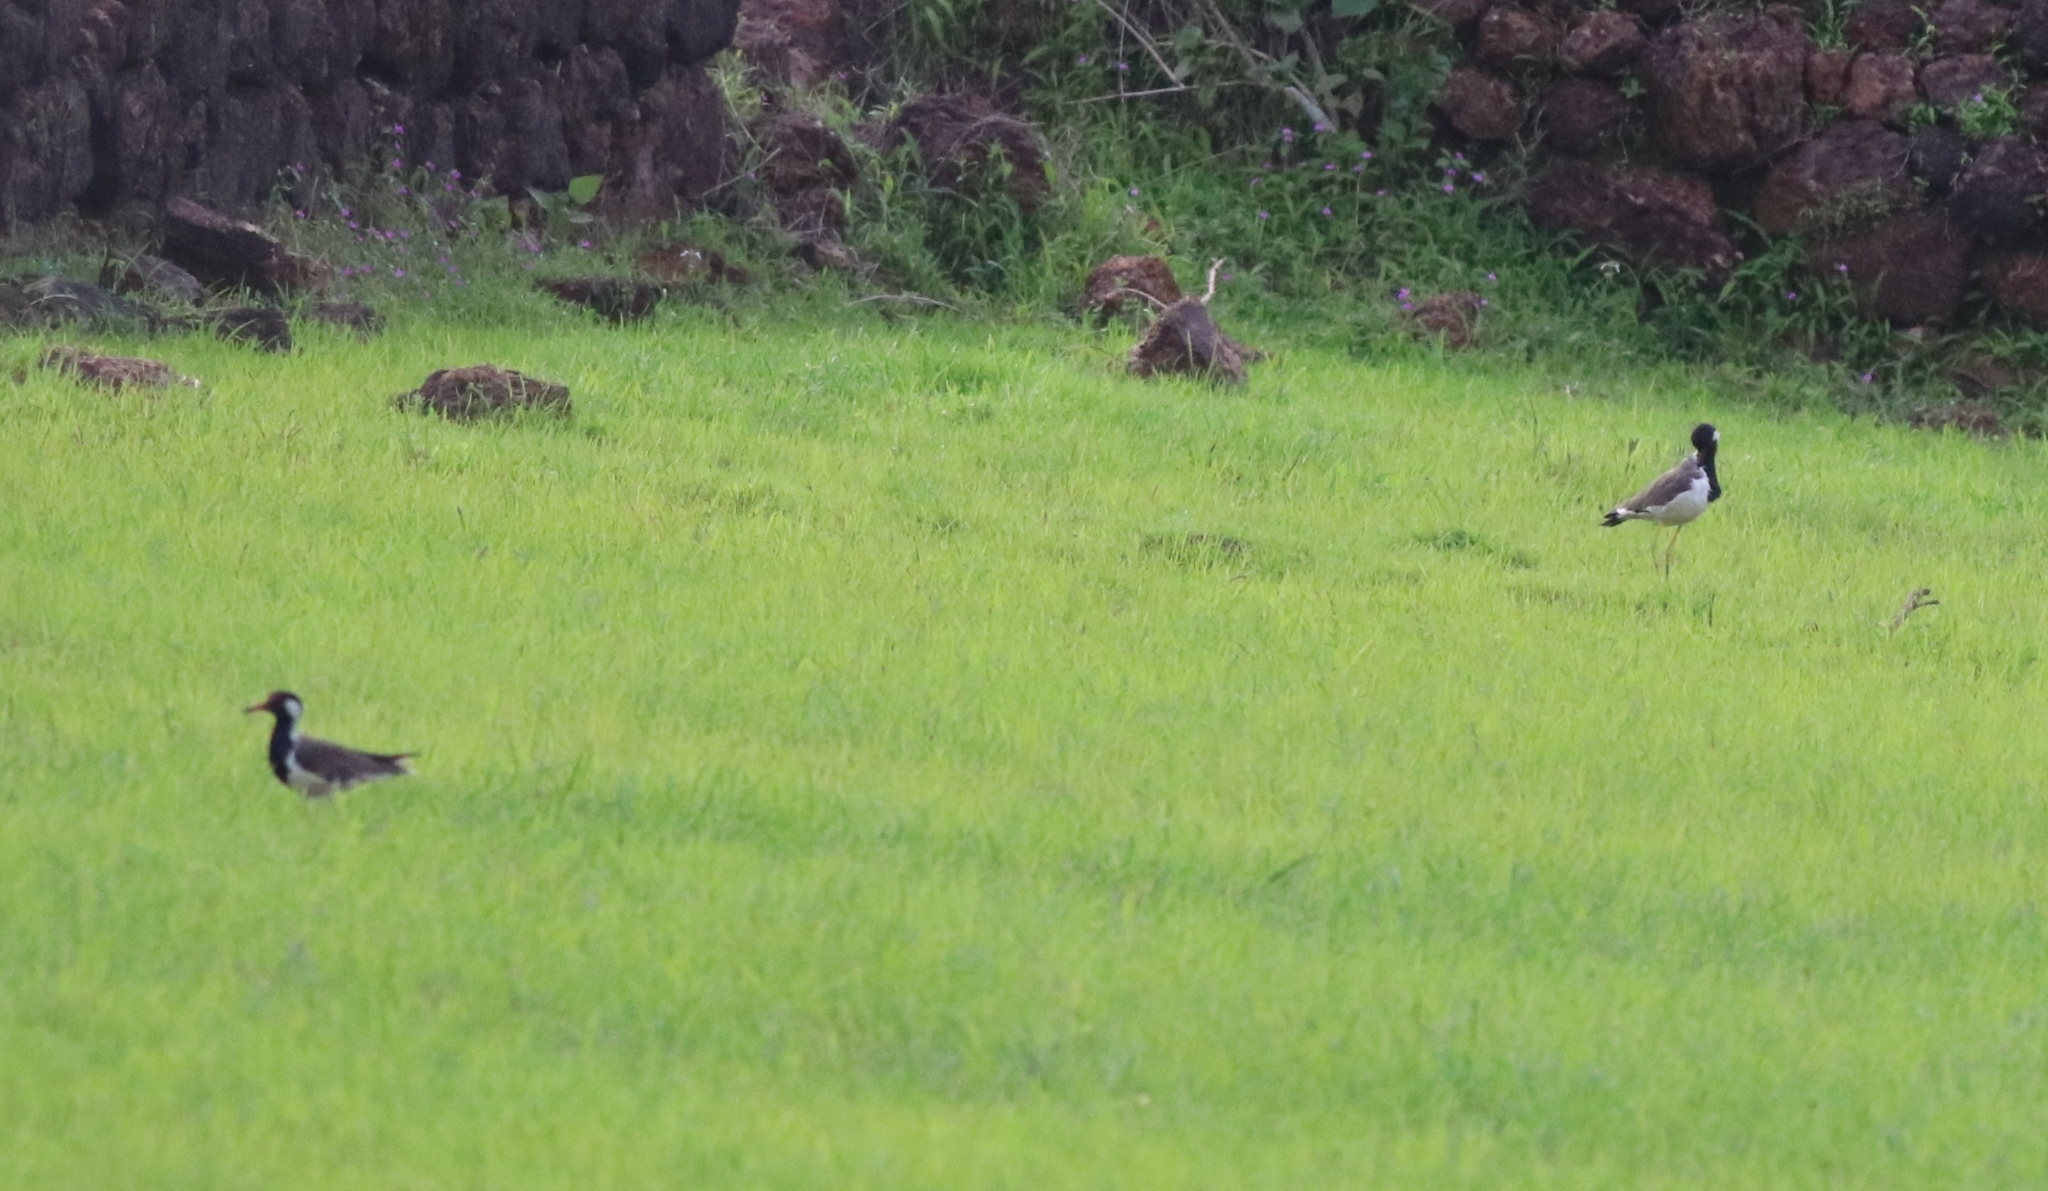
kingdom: Animalia
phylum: Chordata
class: Aves
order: Charadriiformes
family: Charadriidae
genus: Vanellus
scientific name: Vanellus indicus
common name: Red-wattled lapwing
